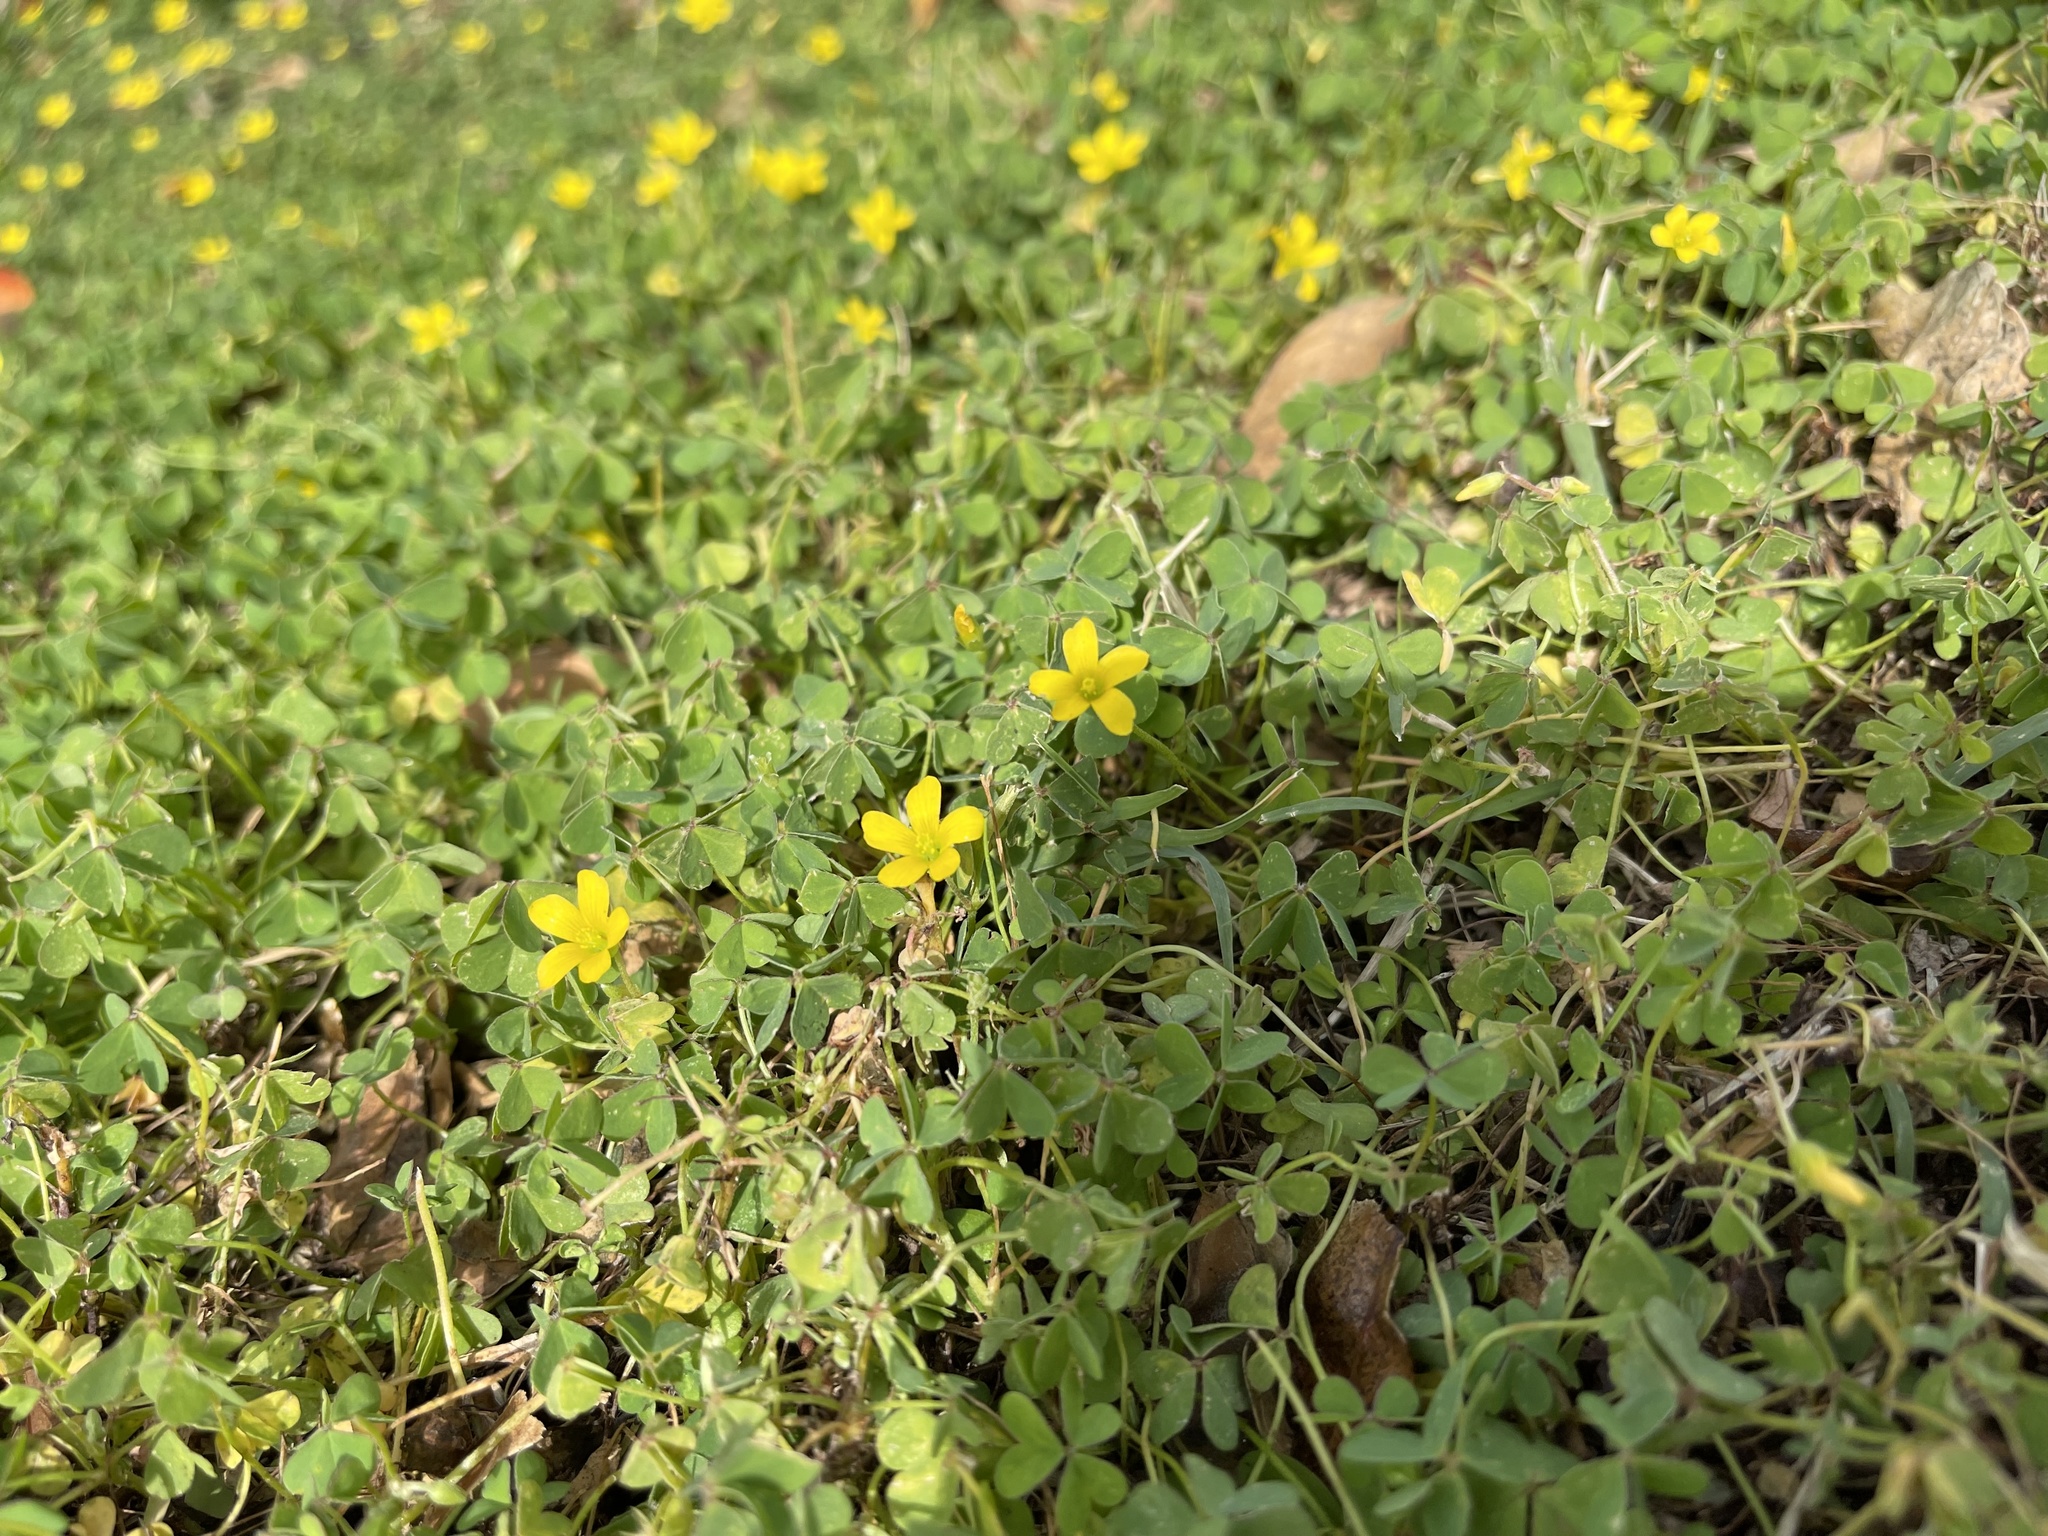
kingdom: Plantae
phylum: Tracheophyta
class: Magnoliopsida
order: Oxalidales
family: Oxalidaceae
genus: Oxalis
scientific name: Oxalis dillenii
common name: Sussex yellow-sorrel
